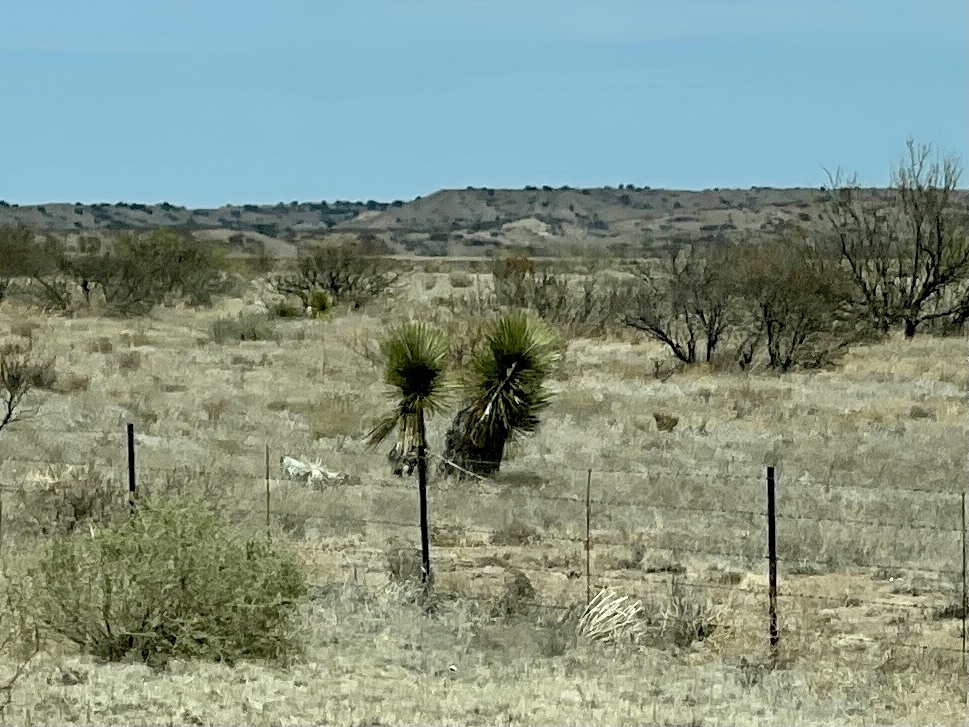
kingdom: Plantae
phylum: Tracheophyta
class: Liliopsida
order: Asparagales
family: Asparagaceae
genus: Yucca
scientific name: Yucca elata
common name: Palmella
